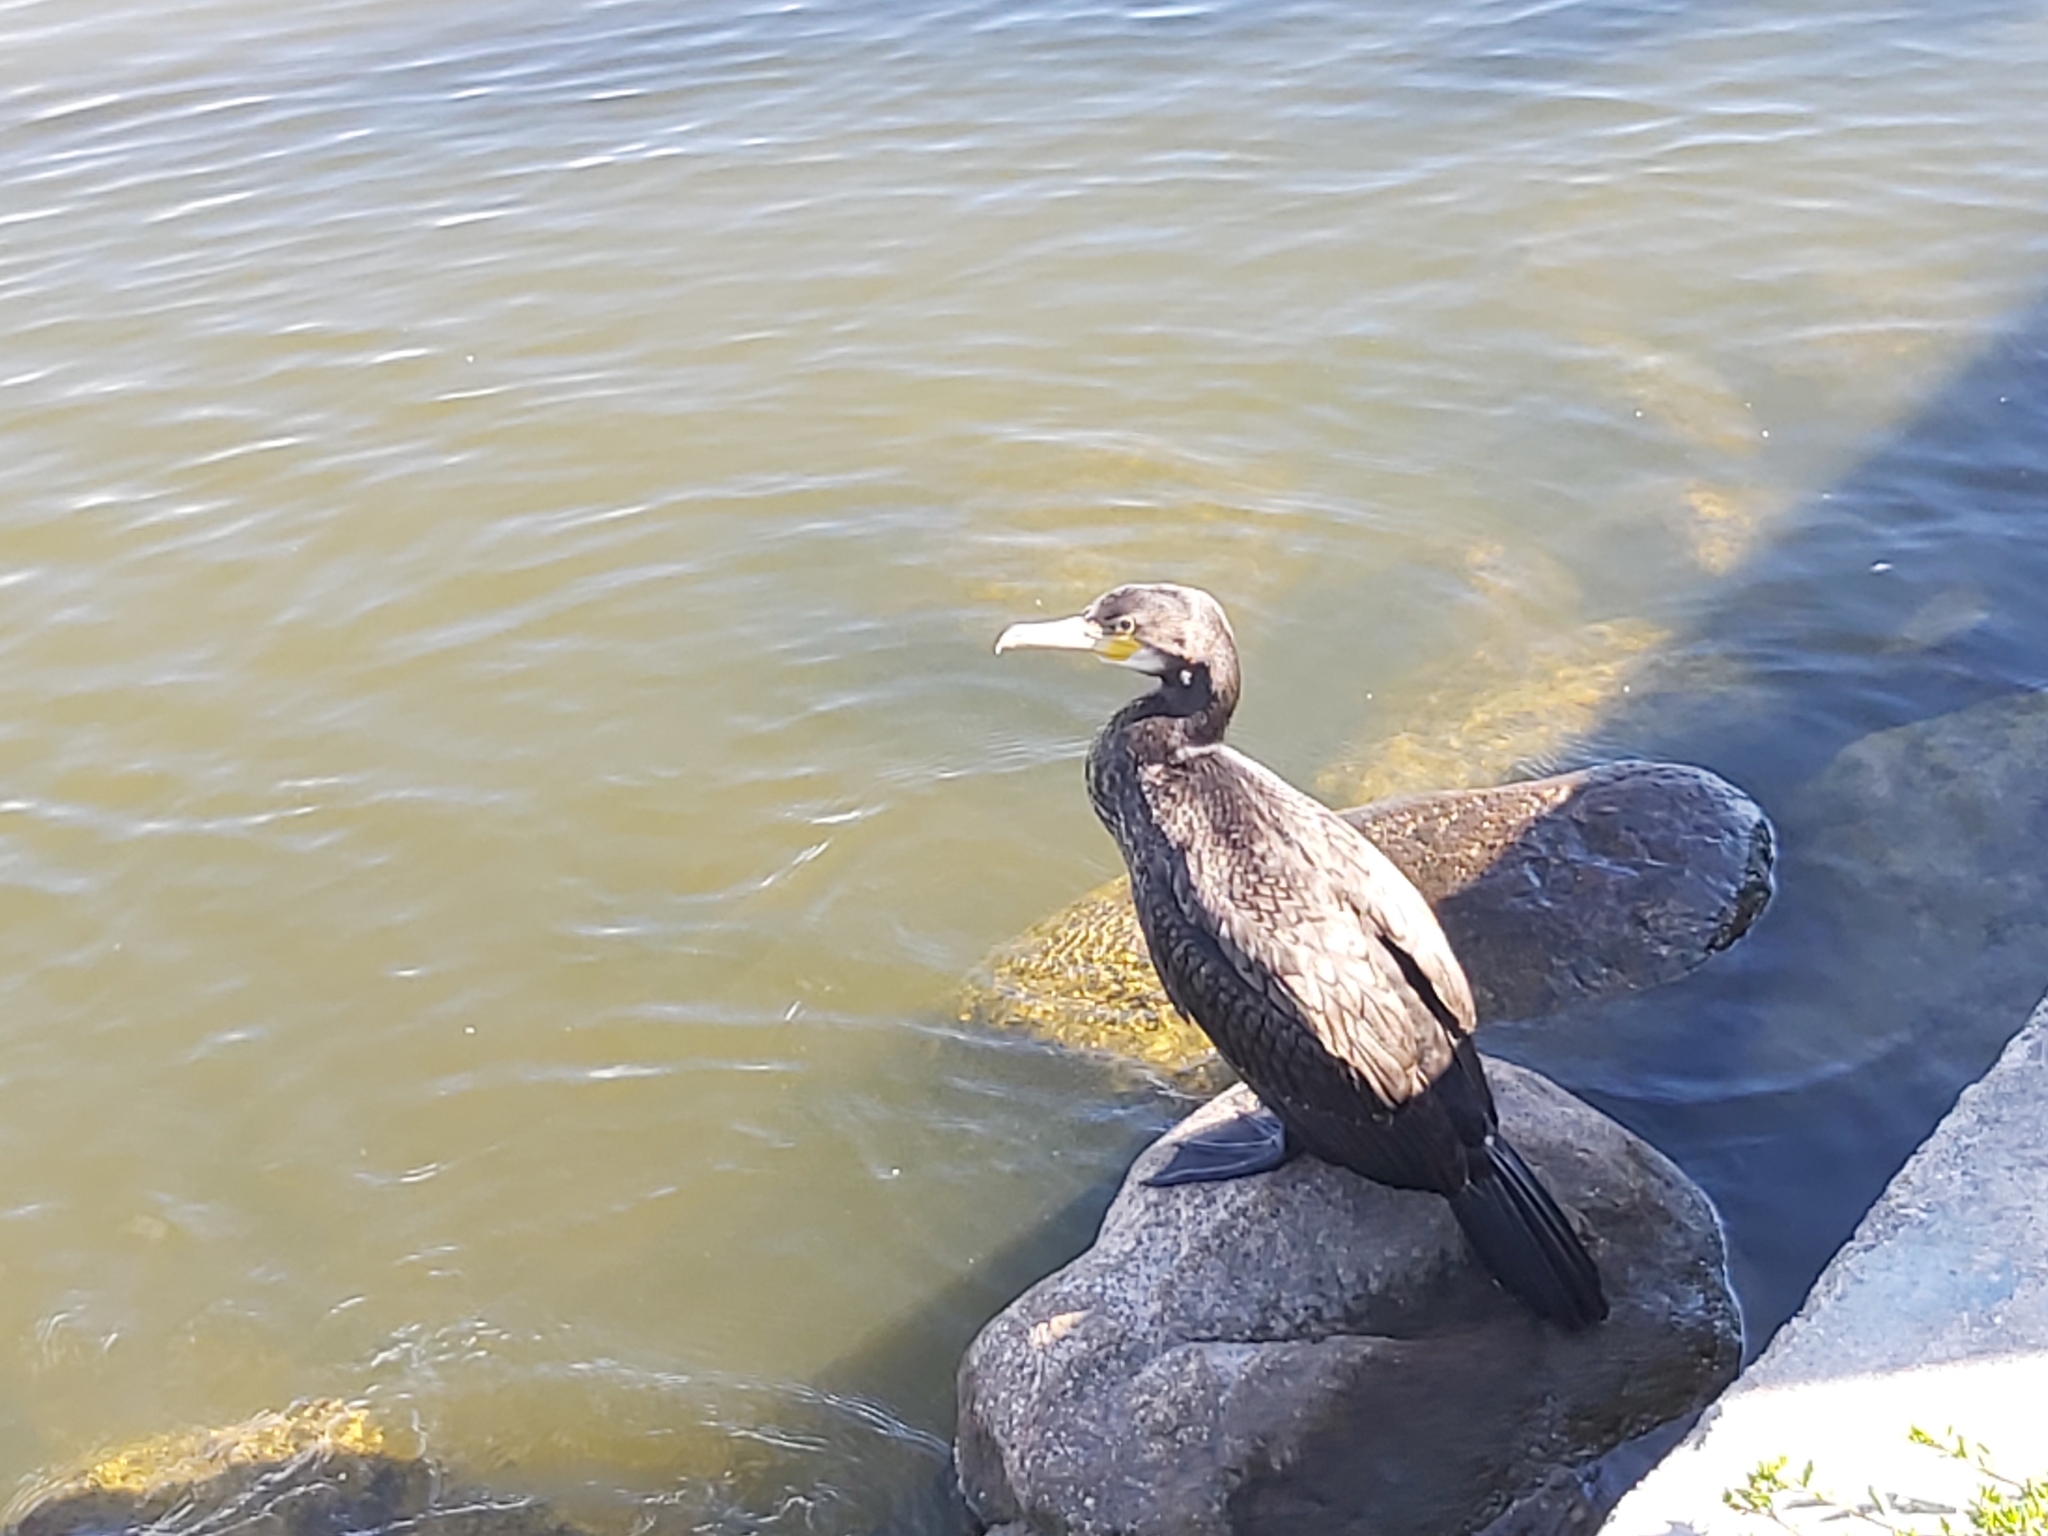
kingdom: Animalia
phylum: Chordata
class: Aves
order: Suliformes
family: Phalacrocoracidae
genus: Phalacrocorax
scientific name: Phalacrocorax carbo
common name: Great cormorant
